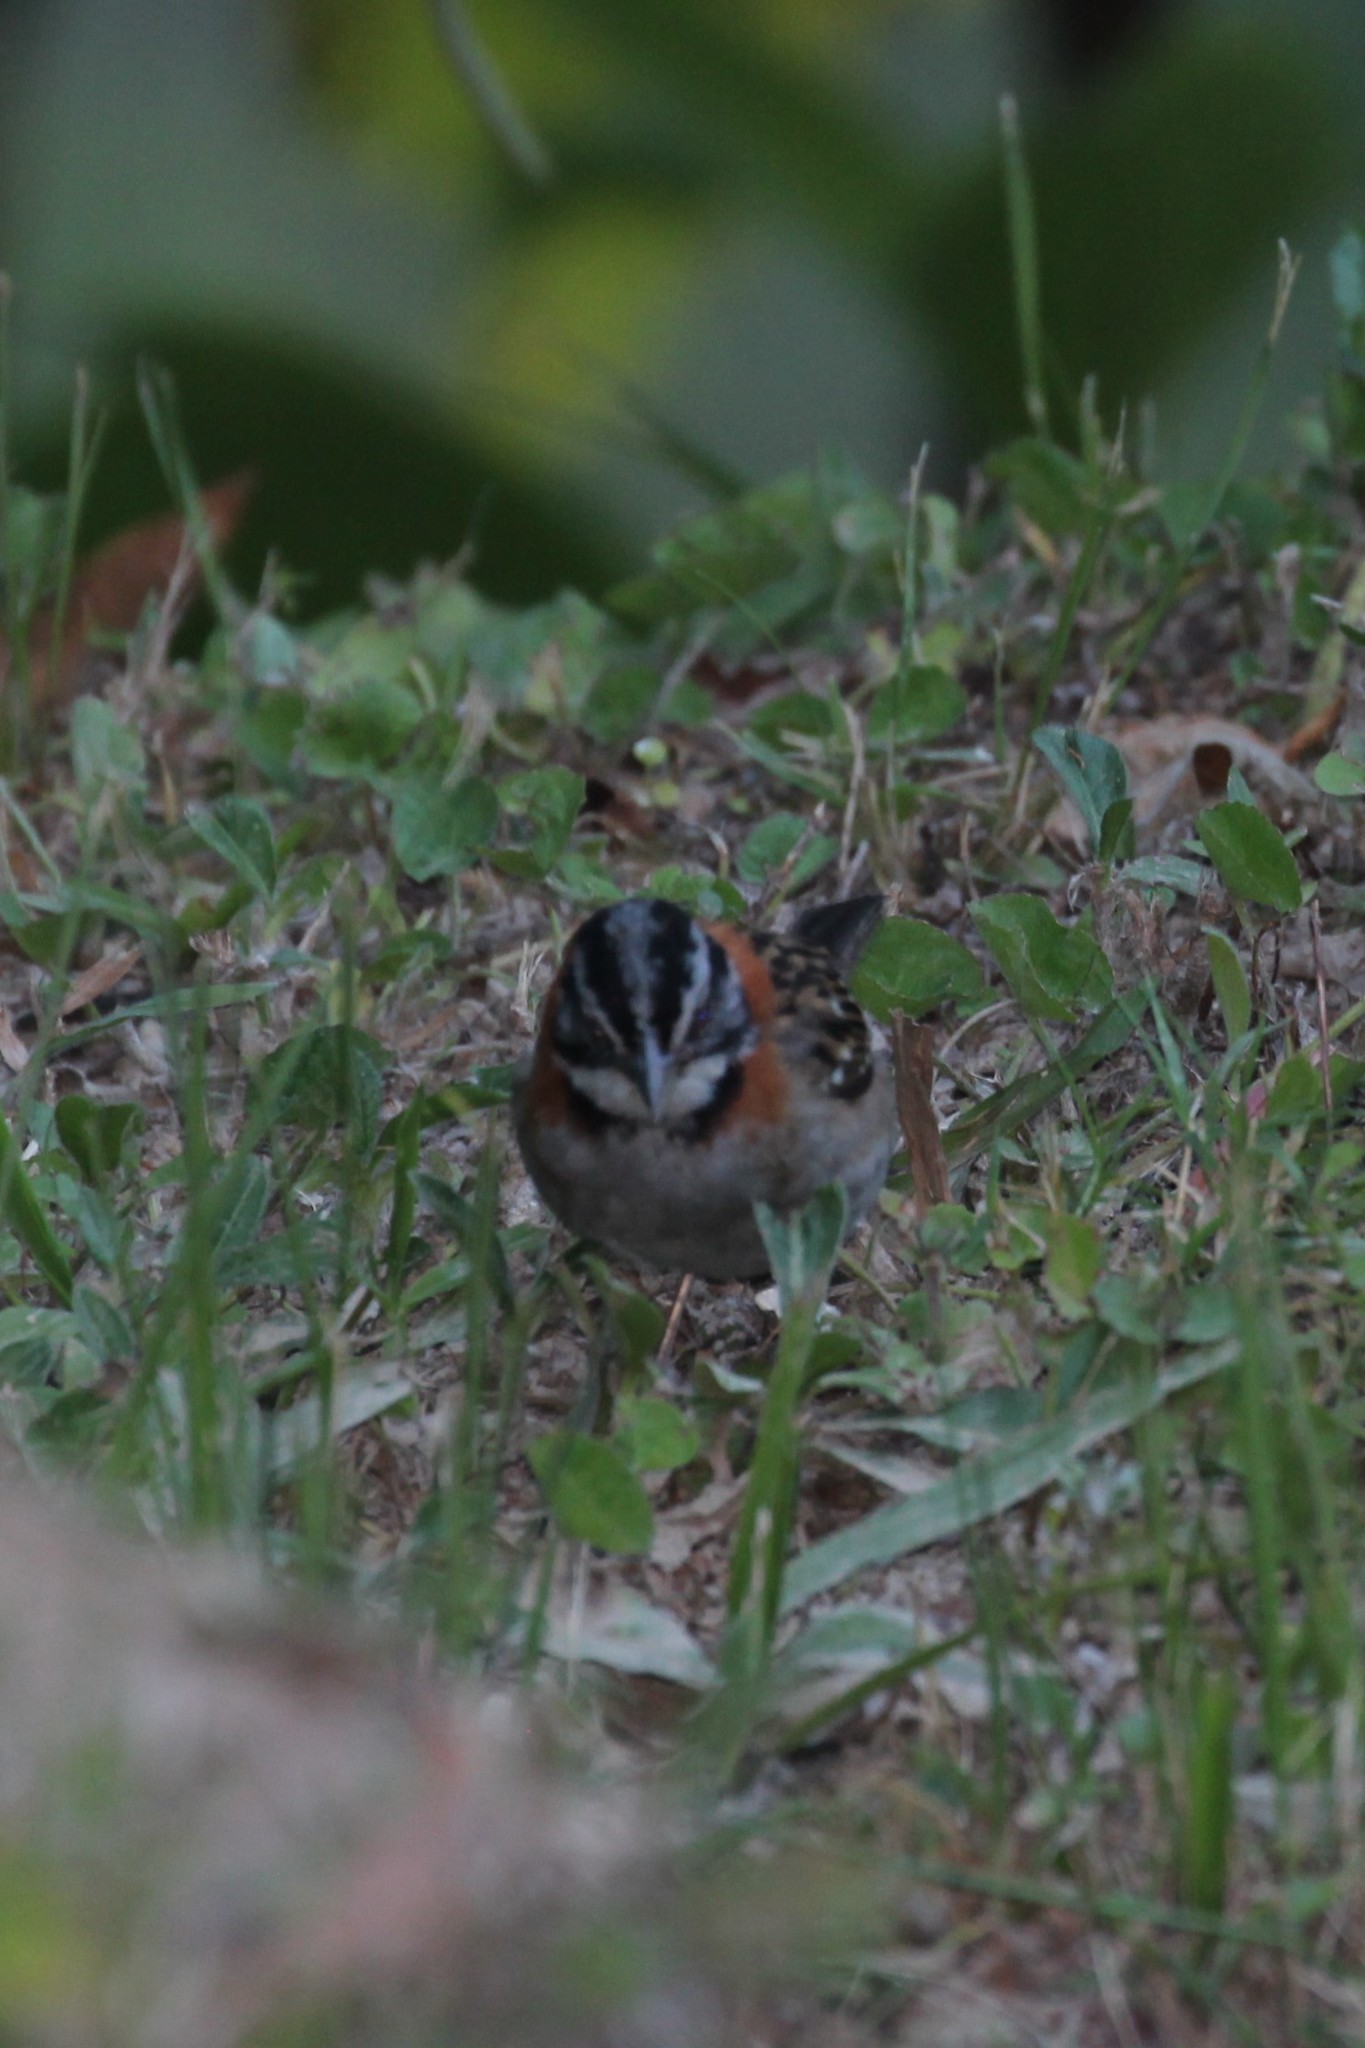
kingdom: Animalia
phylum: Chordata
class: Aves
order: Passeriformes
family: Passerellidae
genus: Zonotrichia
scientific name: Zonotrichia capensis
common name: Rufous-collared sparrow
